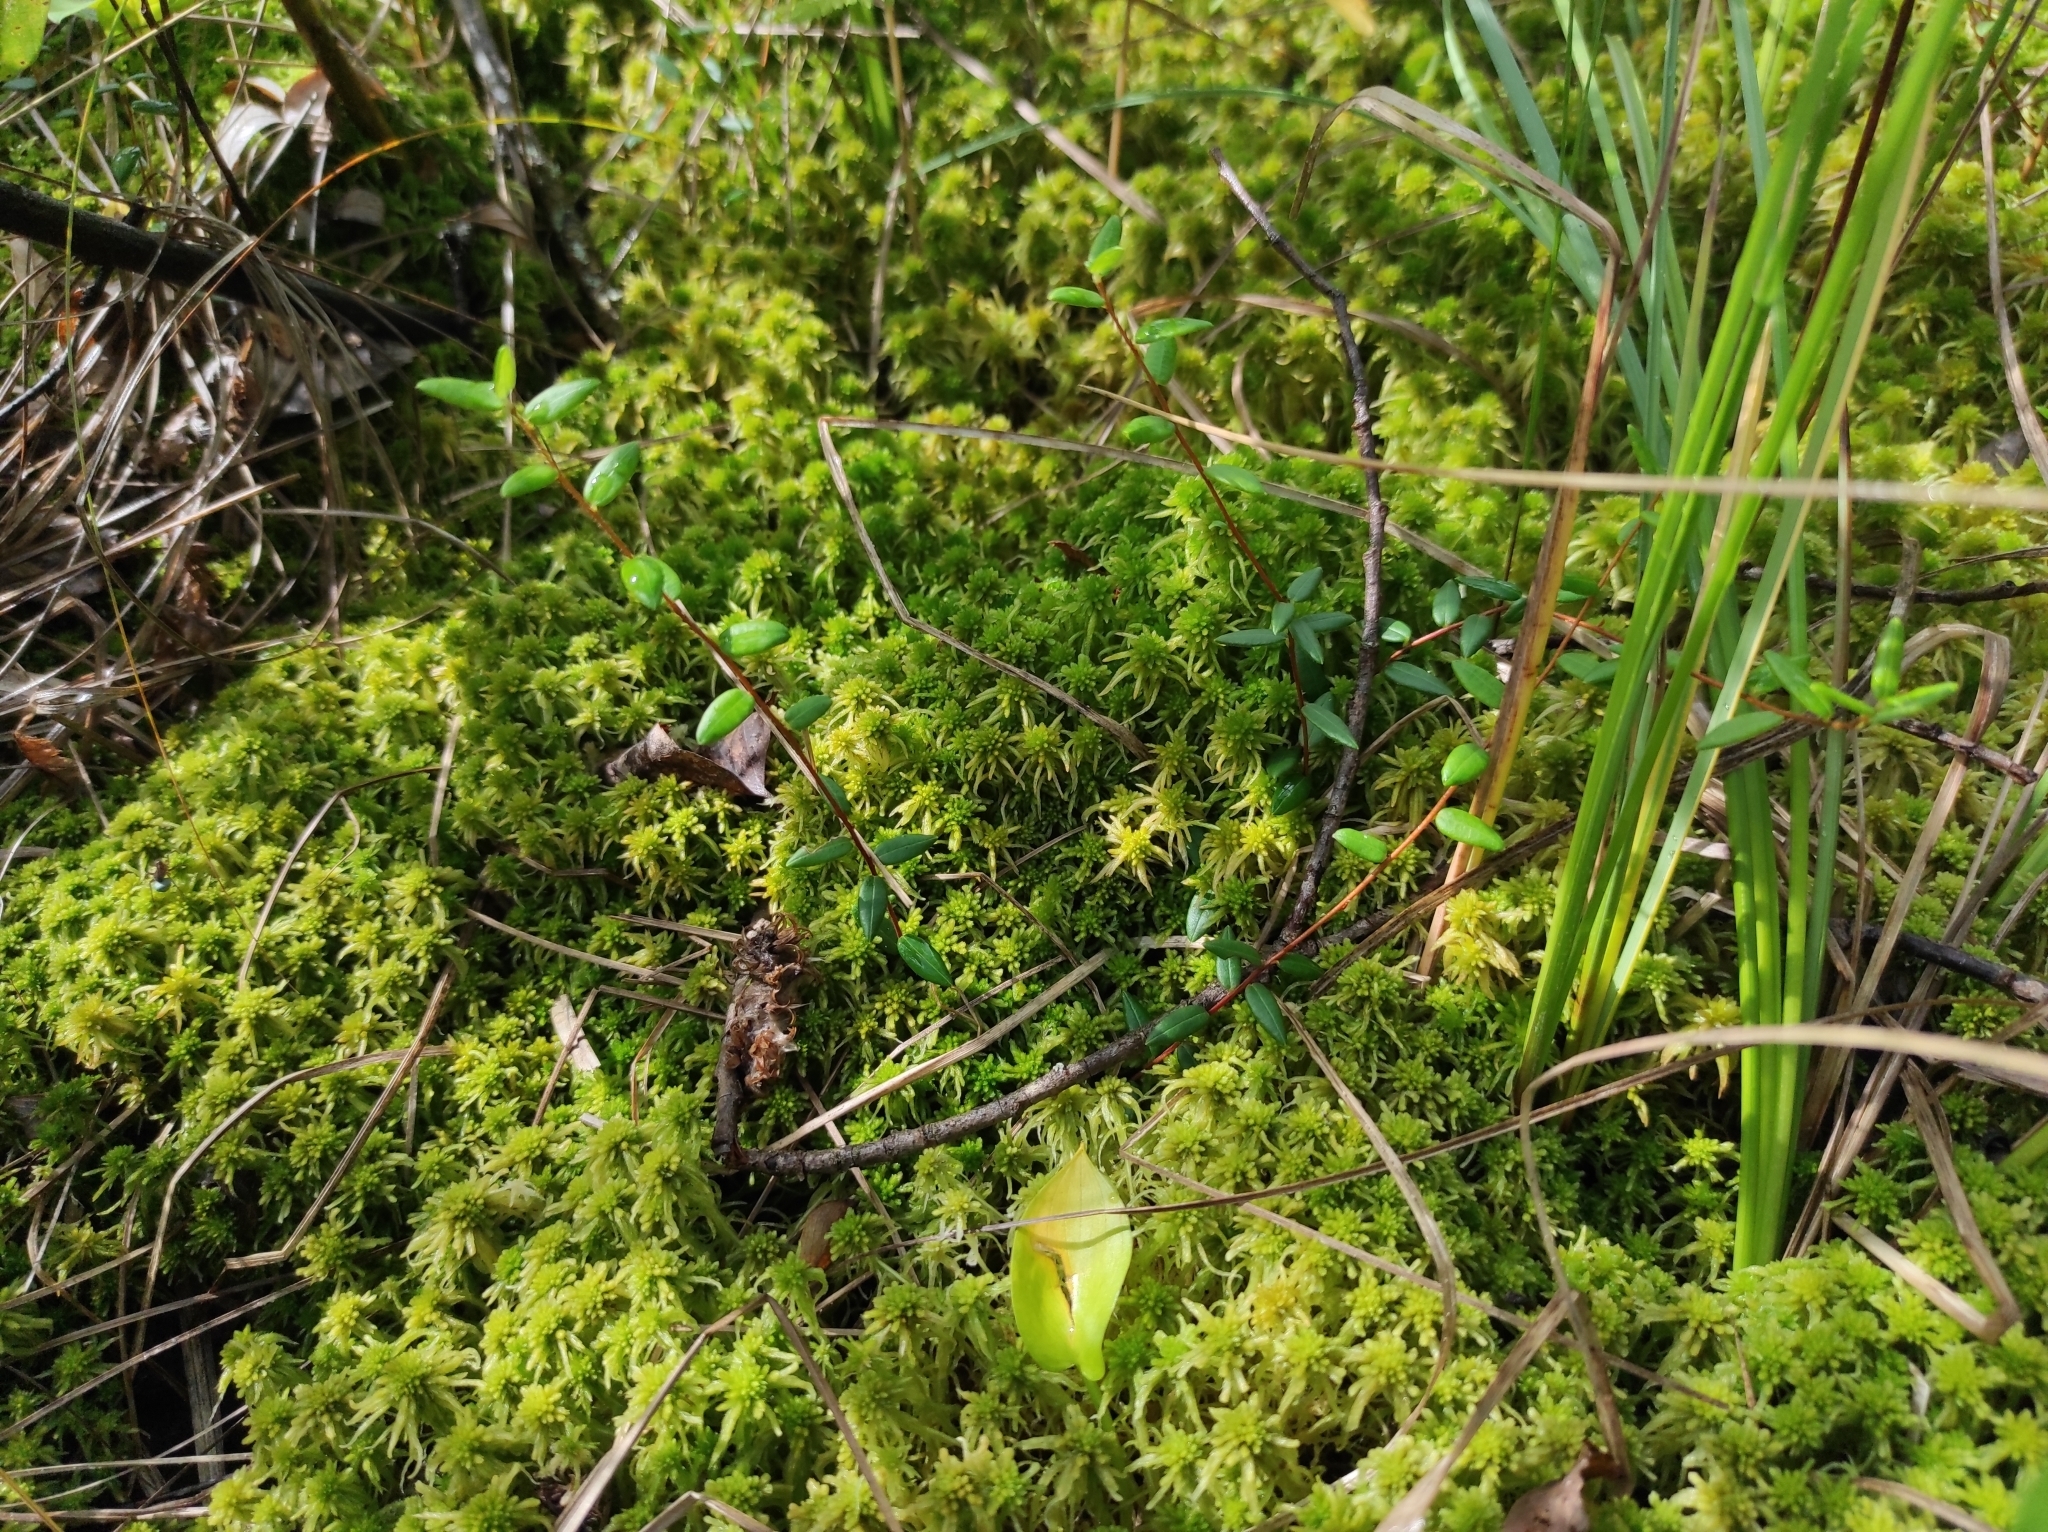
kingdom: Plantae
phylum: Tracheophyta
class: Magnoliopsida
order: Ericales
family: Ericaceae
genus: Vaccinium
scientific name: Vaccinium oxycoccos
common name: Cranberry
